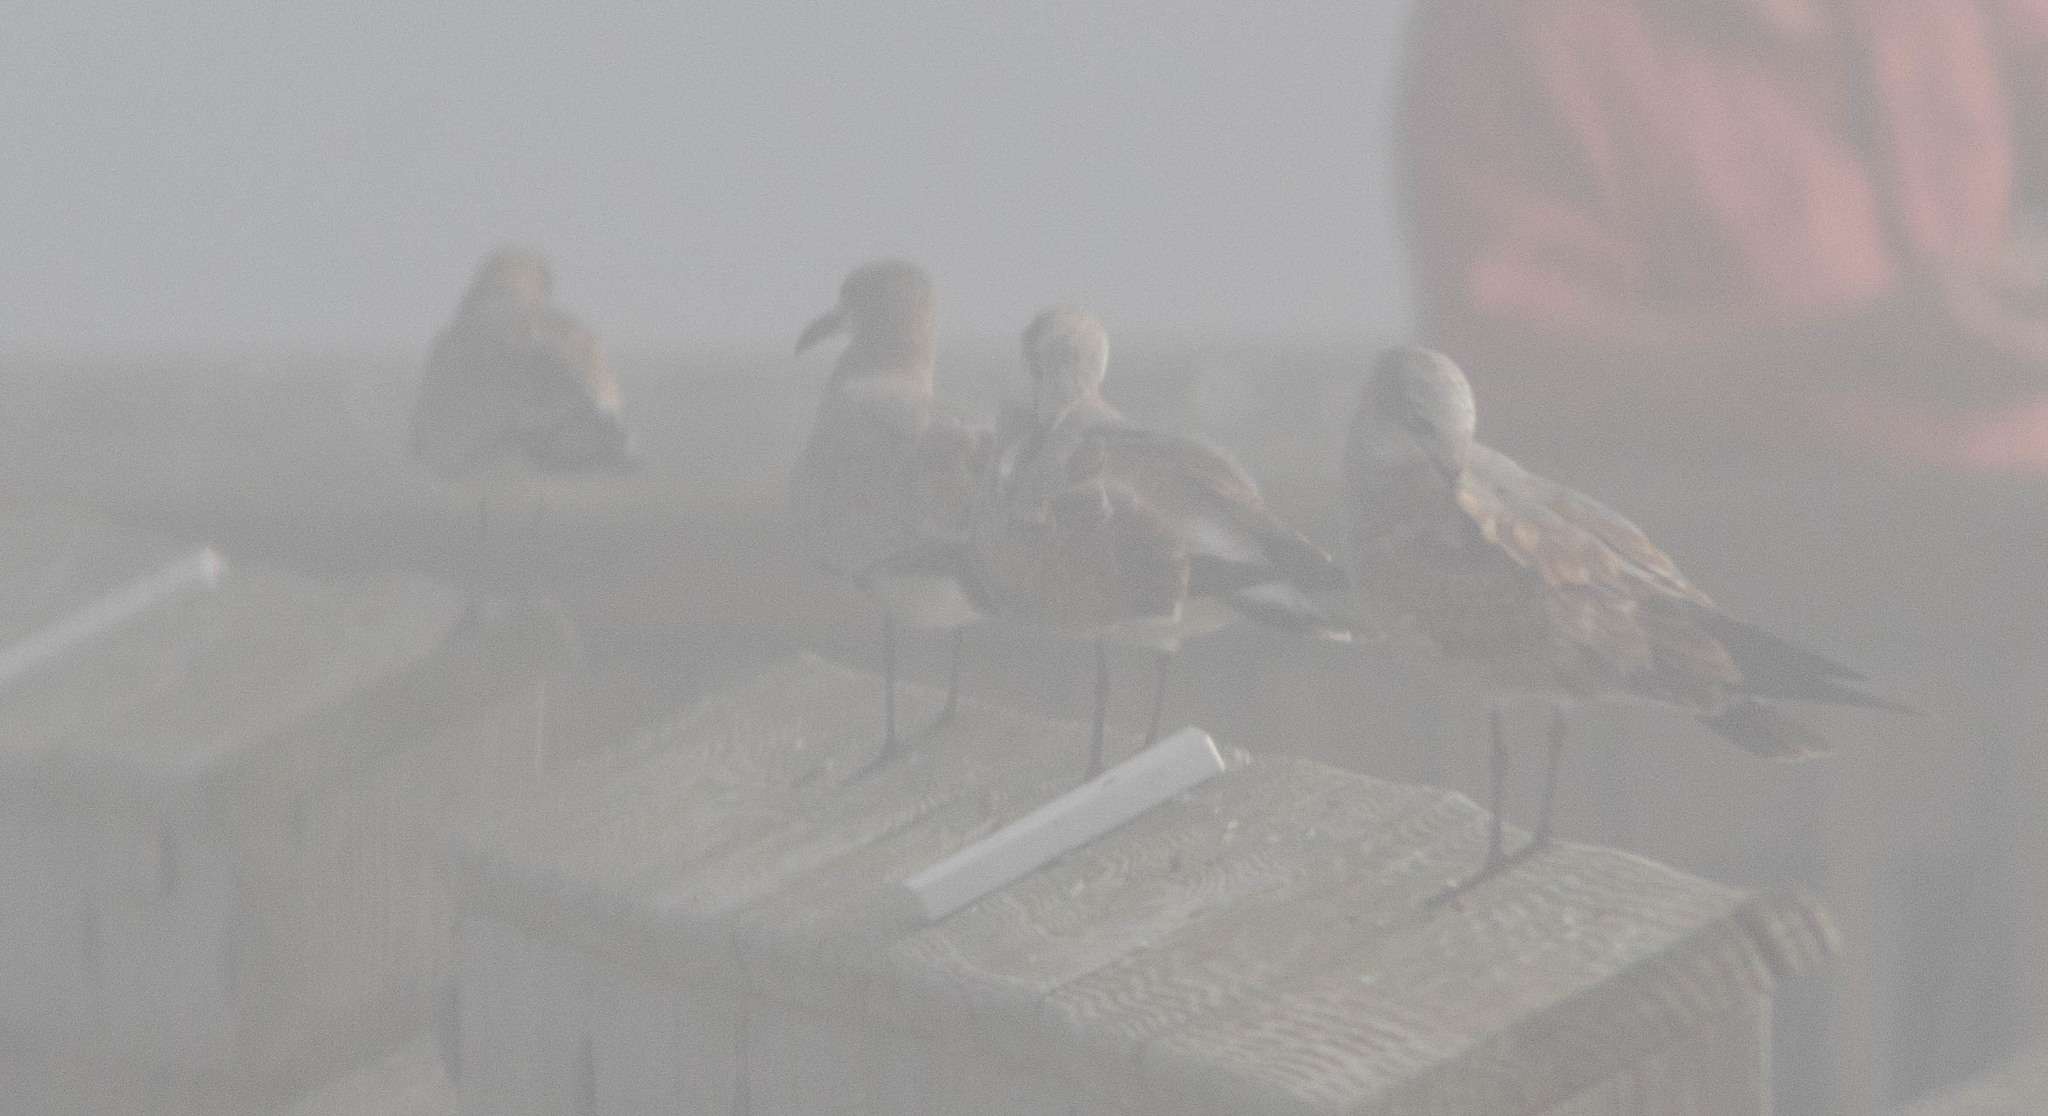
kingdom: Animalia
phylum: Chordata
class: Aves
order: Charadriiformes
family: Laridae
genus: Leucophaeus
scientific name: Leucophaeus atricilla
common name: Laughing gull
